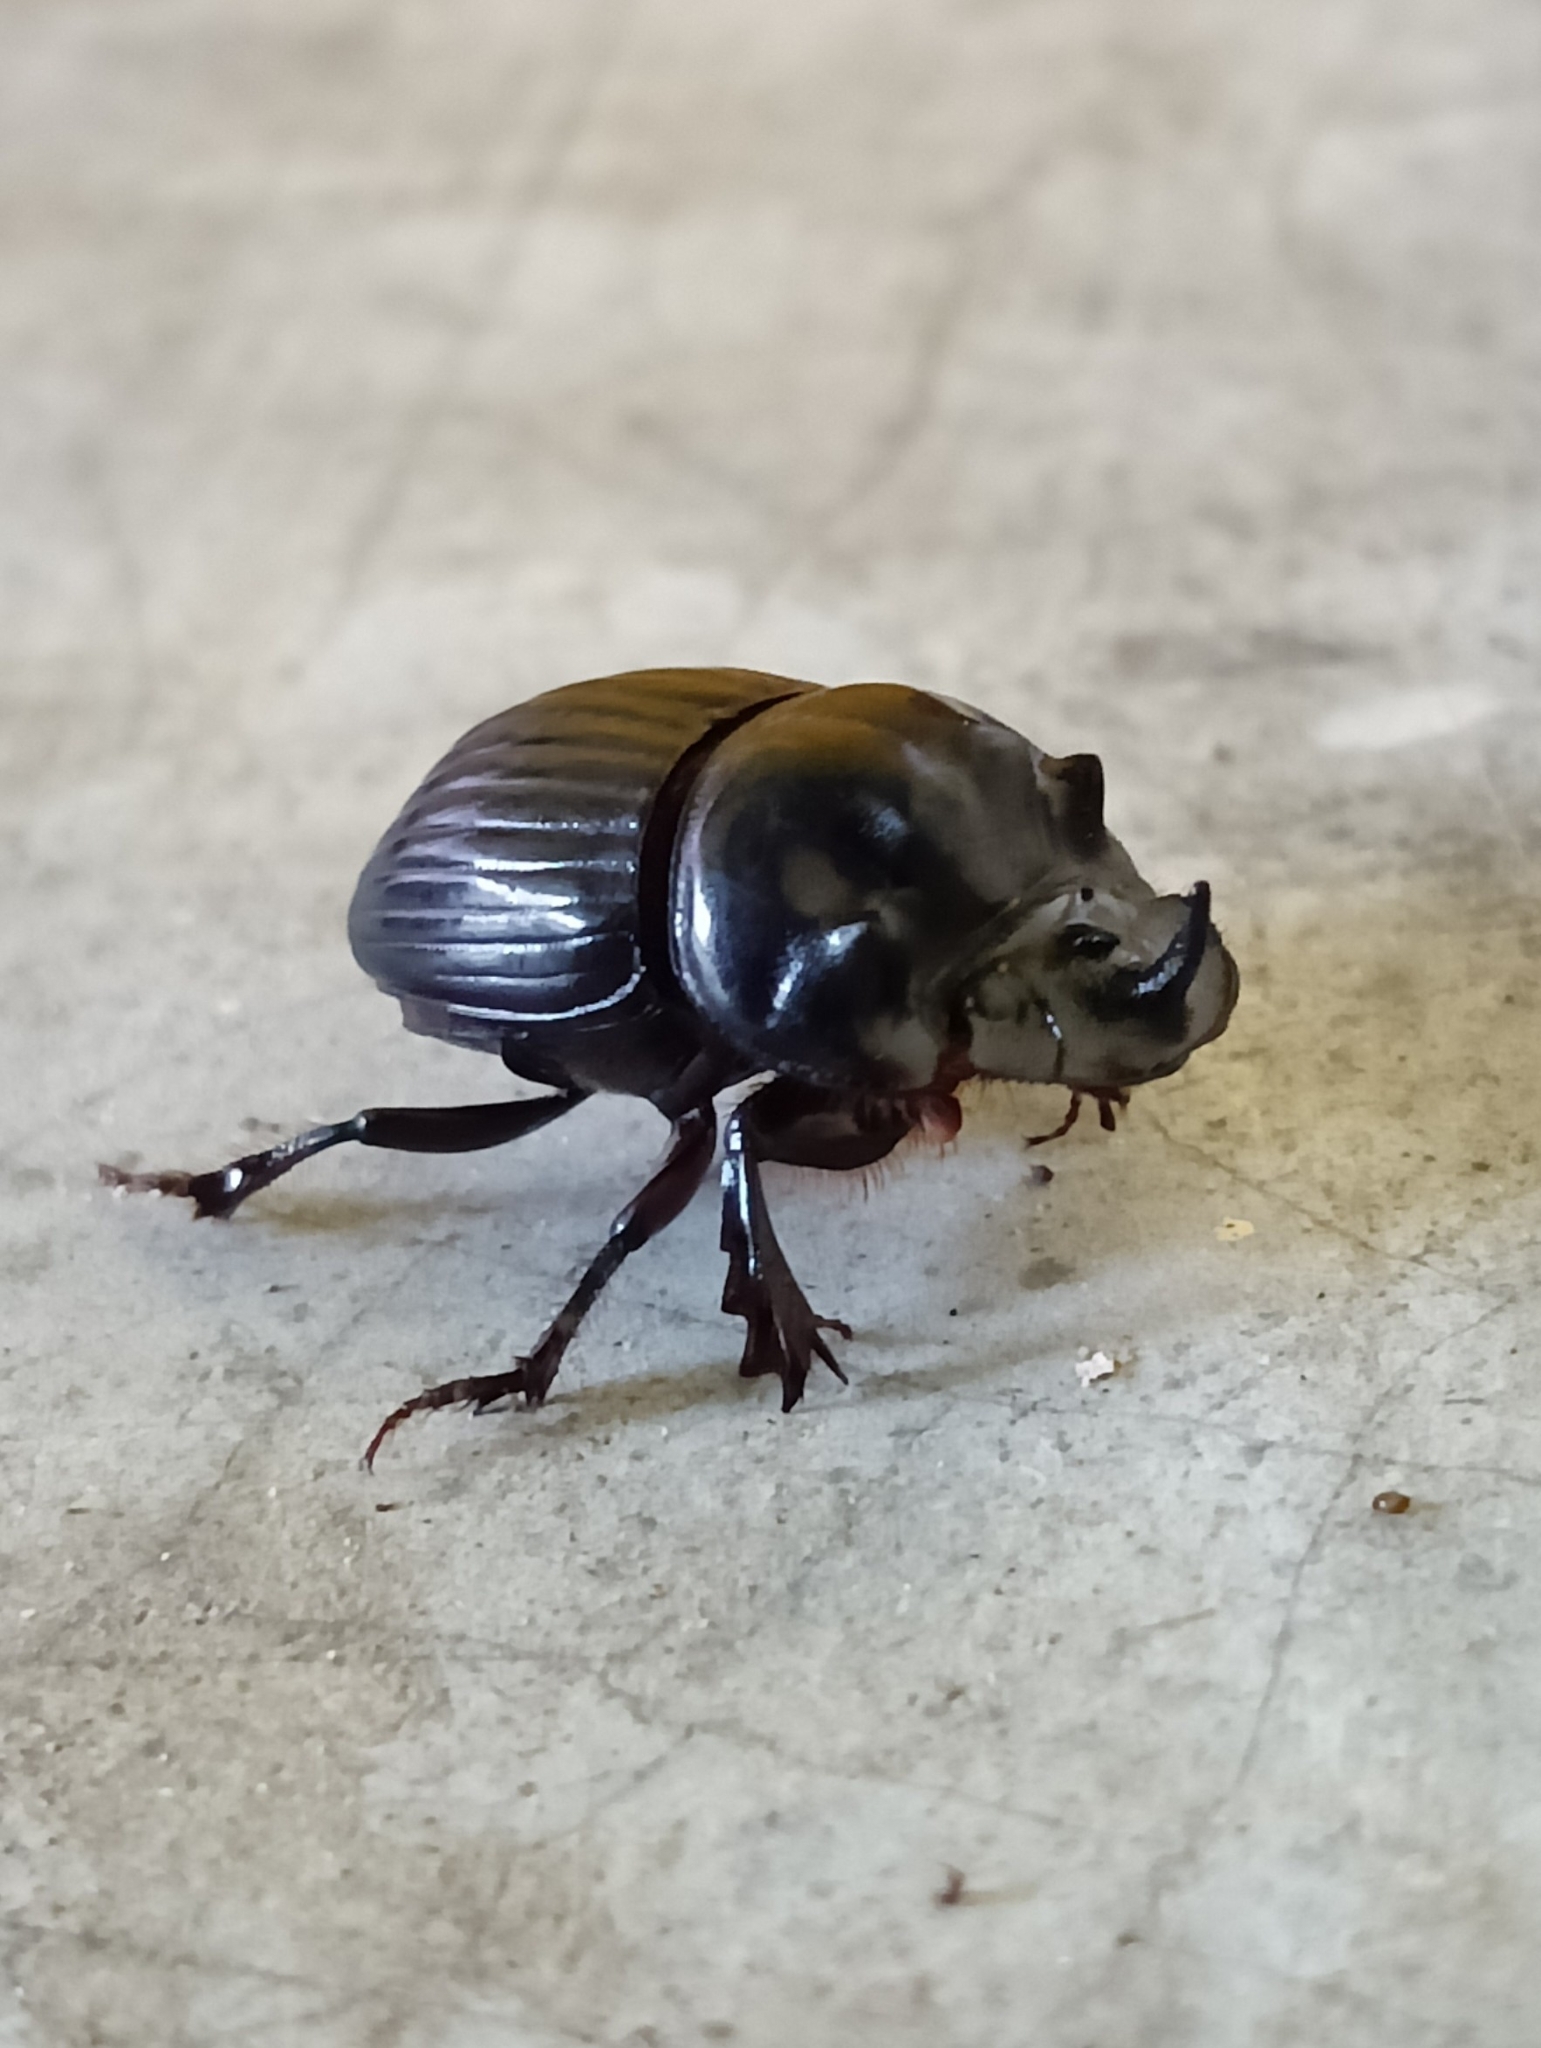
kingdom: Animalia
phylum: Arthropoda
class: Insecta
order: Coleoptera
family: Scarabaeidae
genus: Copris
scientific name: Copris incertus
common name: Uncertain dung beetle
